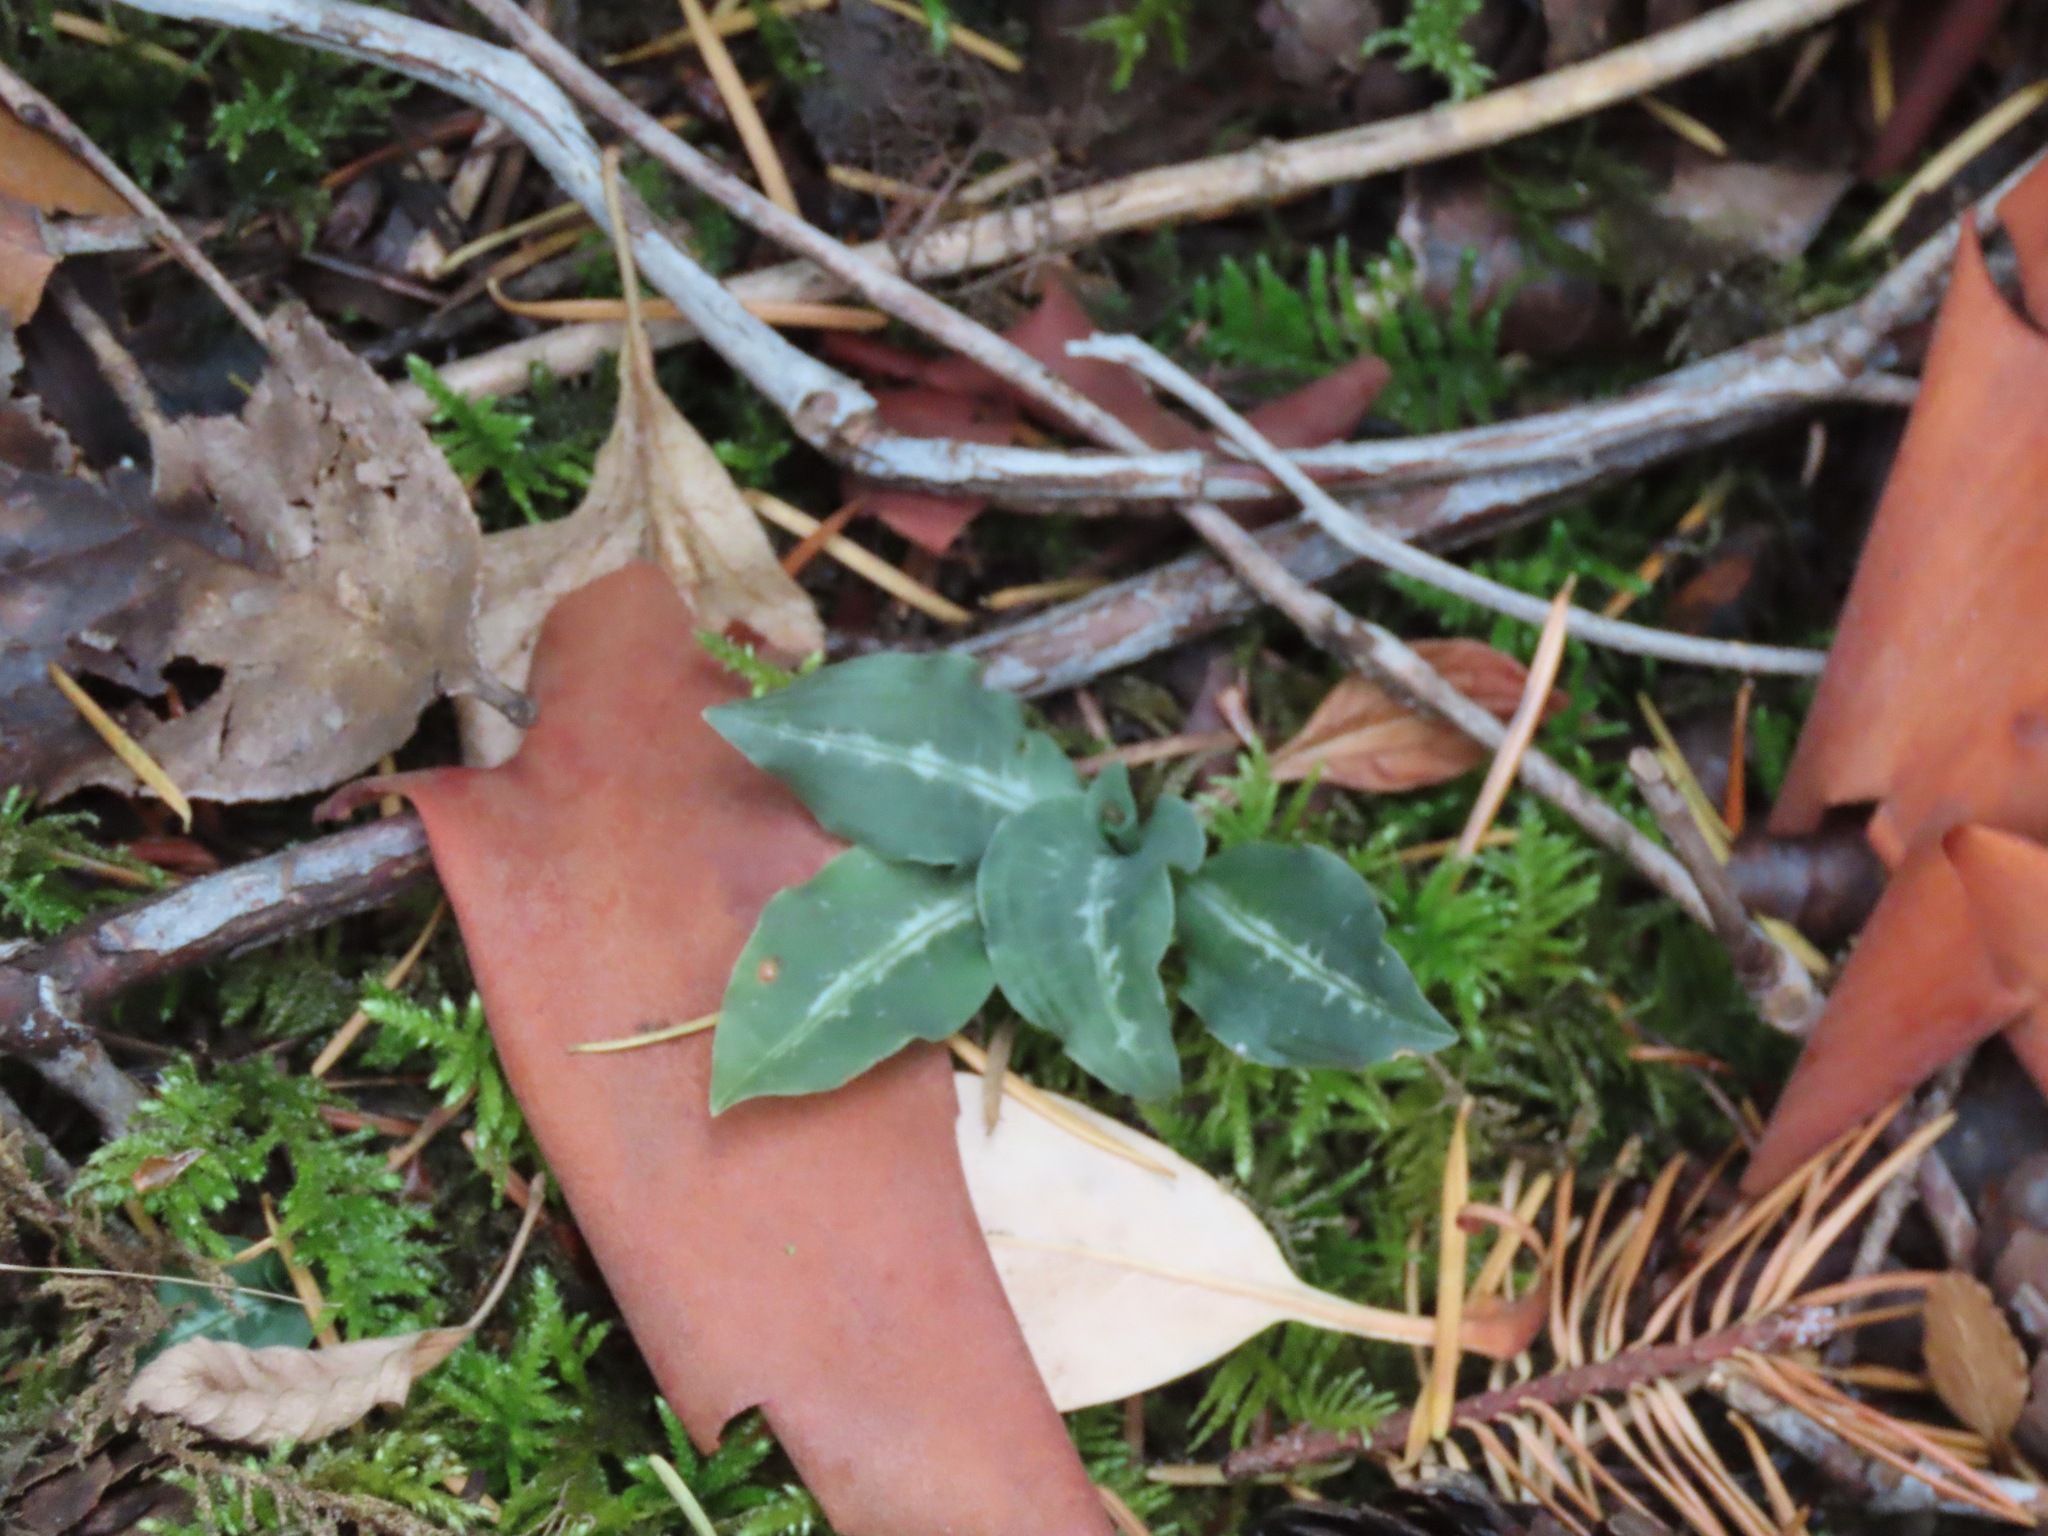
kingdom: Plantae
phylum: Tracheophyta
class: Liliopsida
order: Asparagales
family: Orchidaceae
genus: Goodyera
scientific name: Goodyera oblongifolia
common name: Giant rattlesnake-plantain
